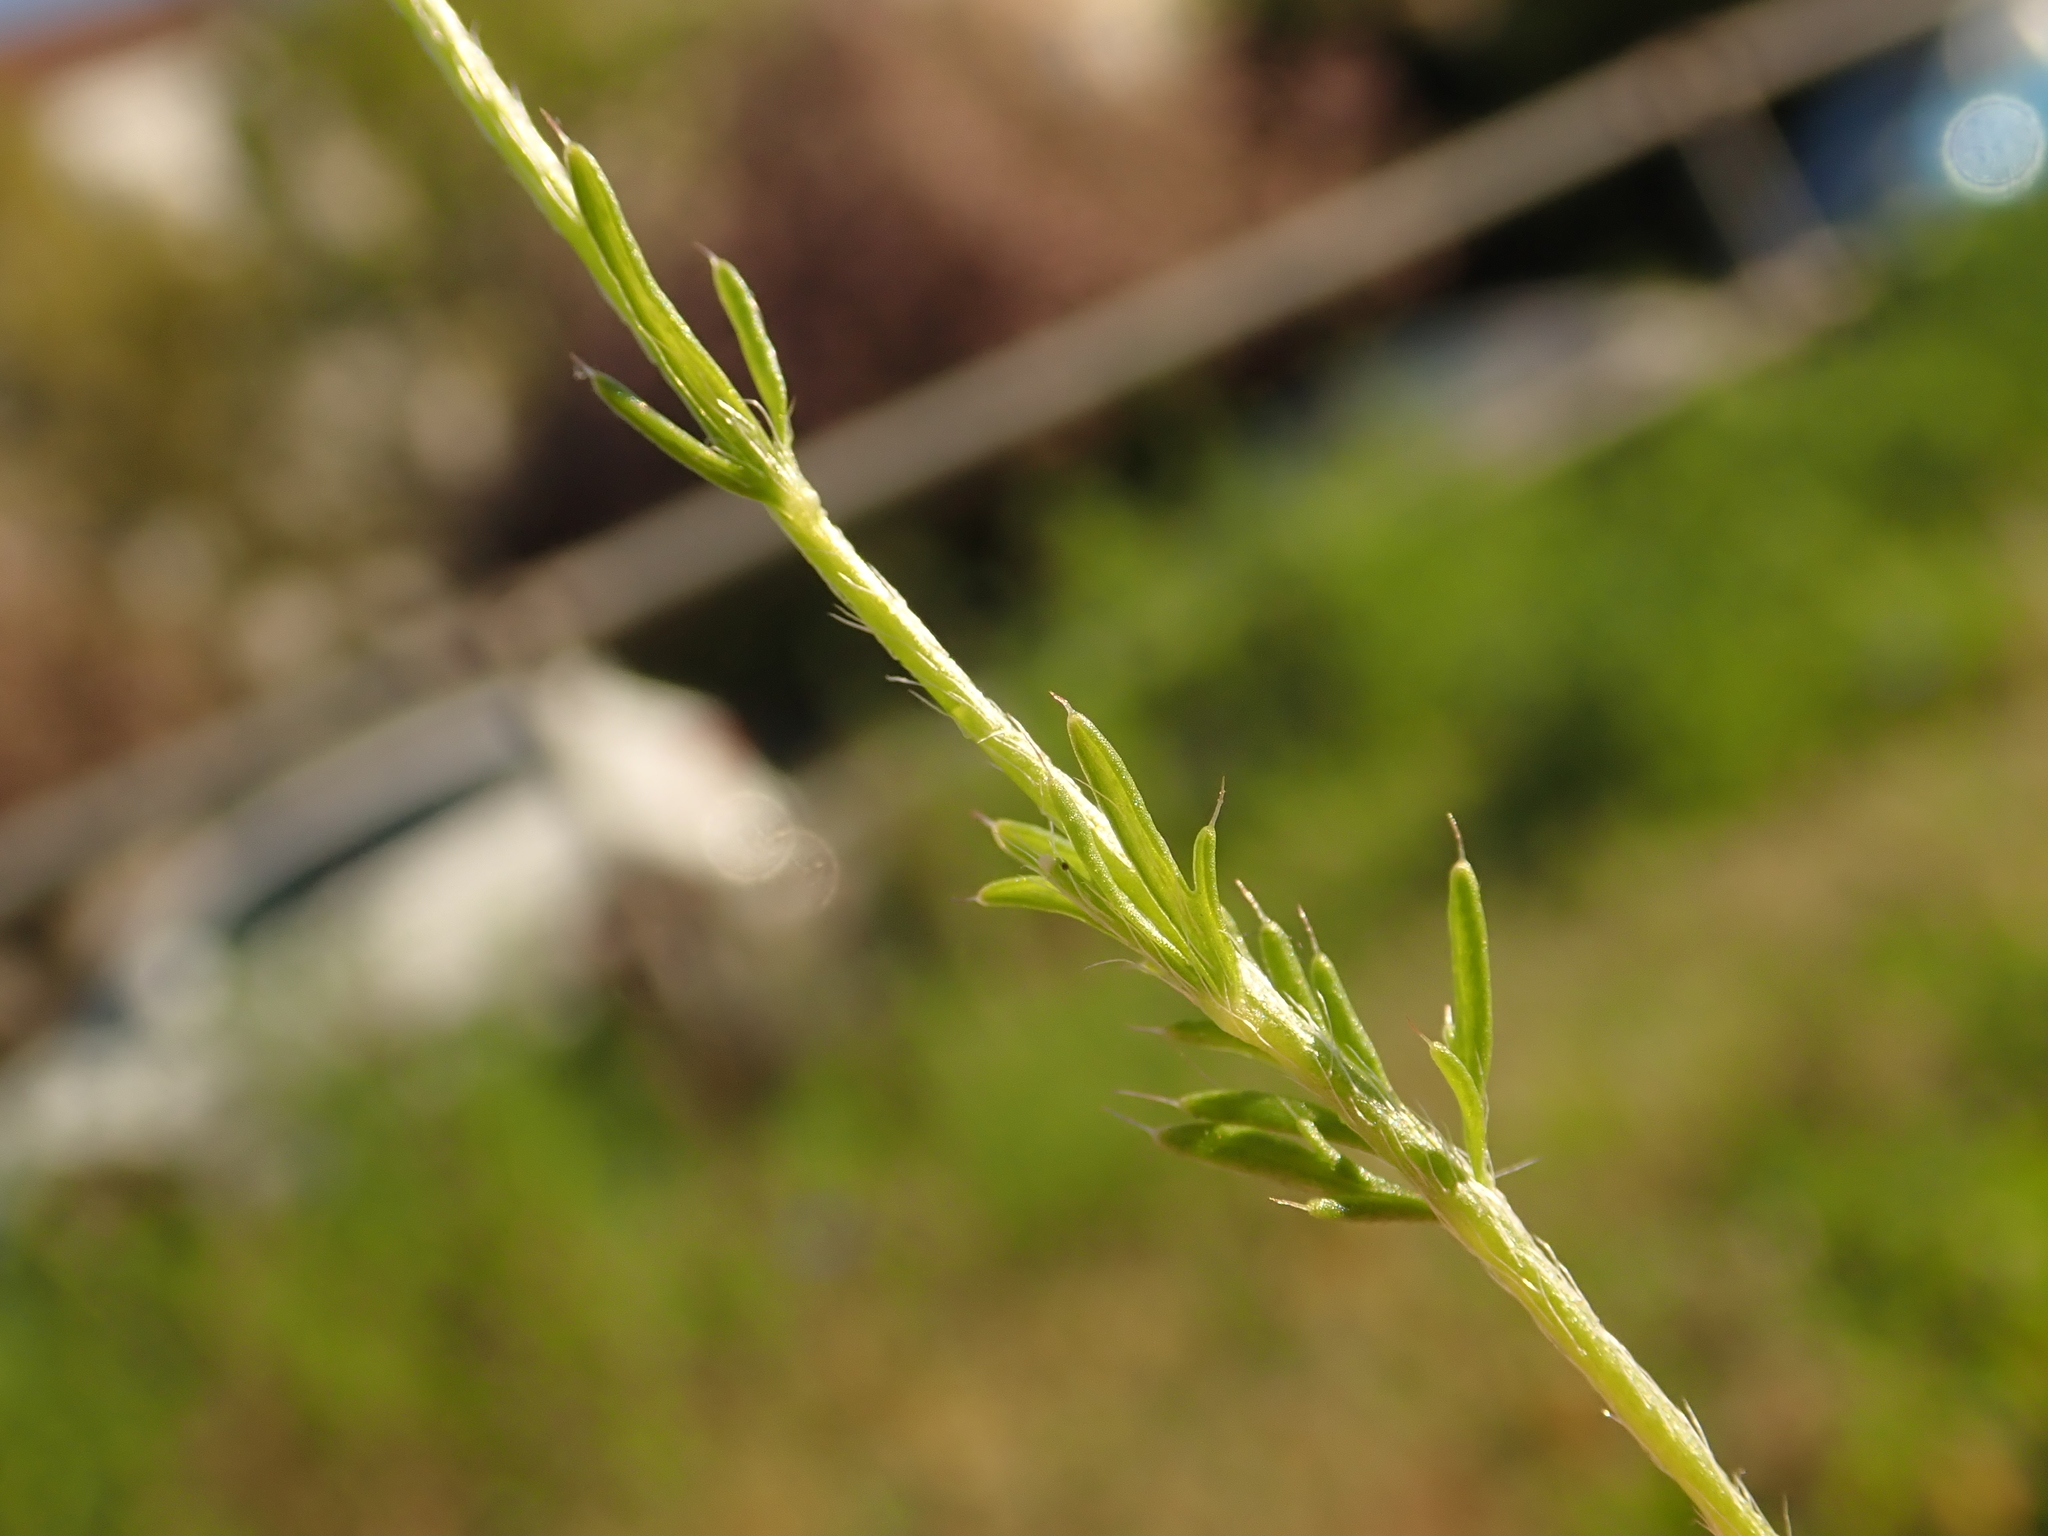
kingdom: Plantae
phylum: Tracheophyta
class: Magnoliopsida
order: Ranunculales
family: Papaveraceae
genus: Roemeria
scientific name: Roemeria argemone
